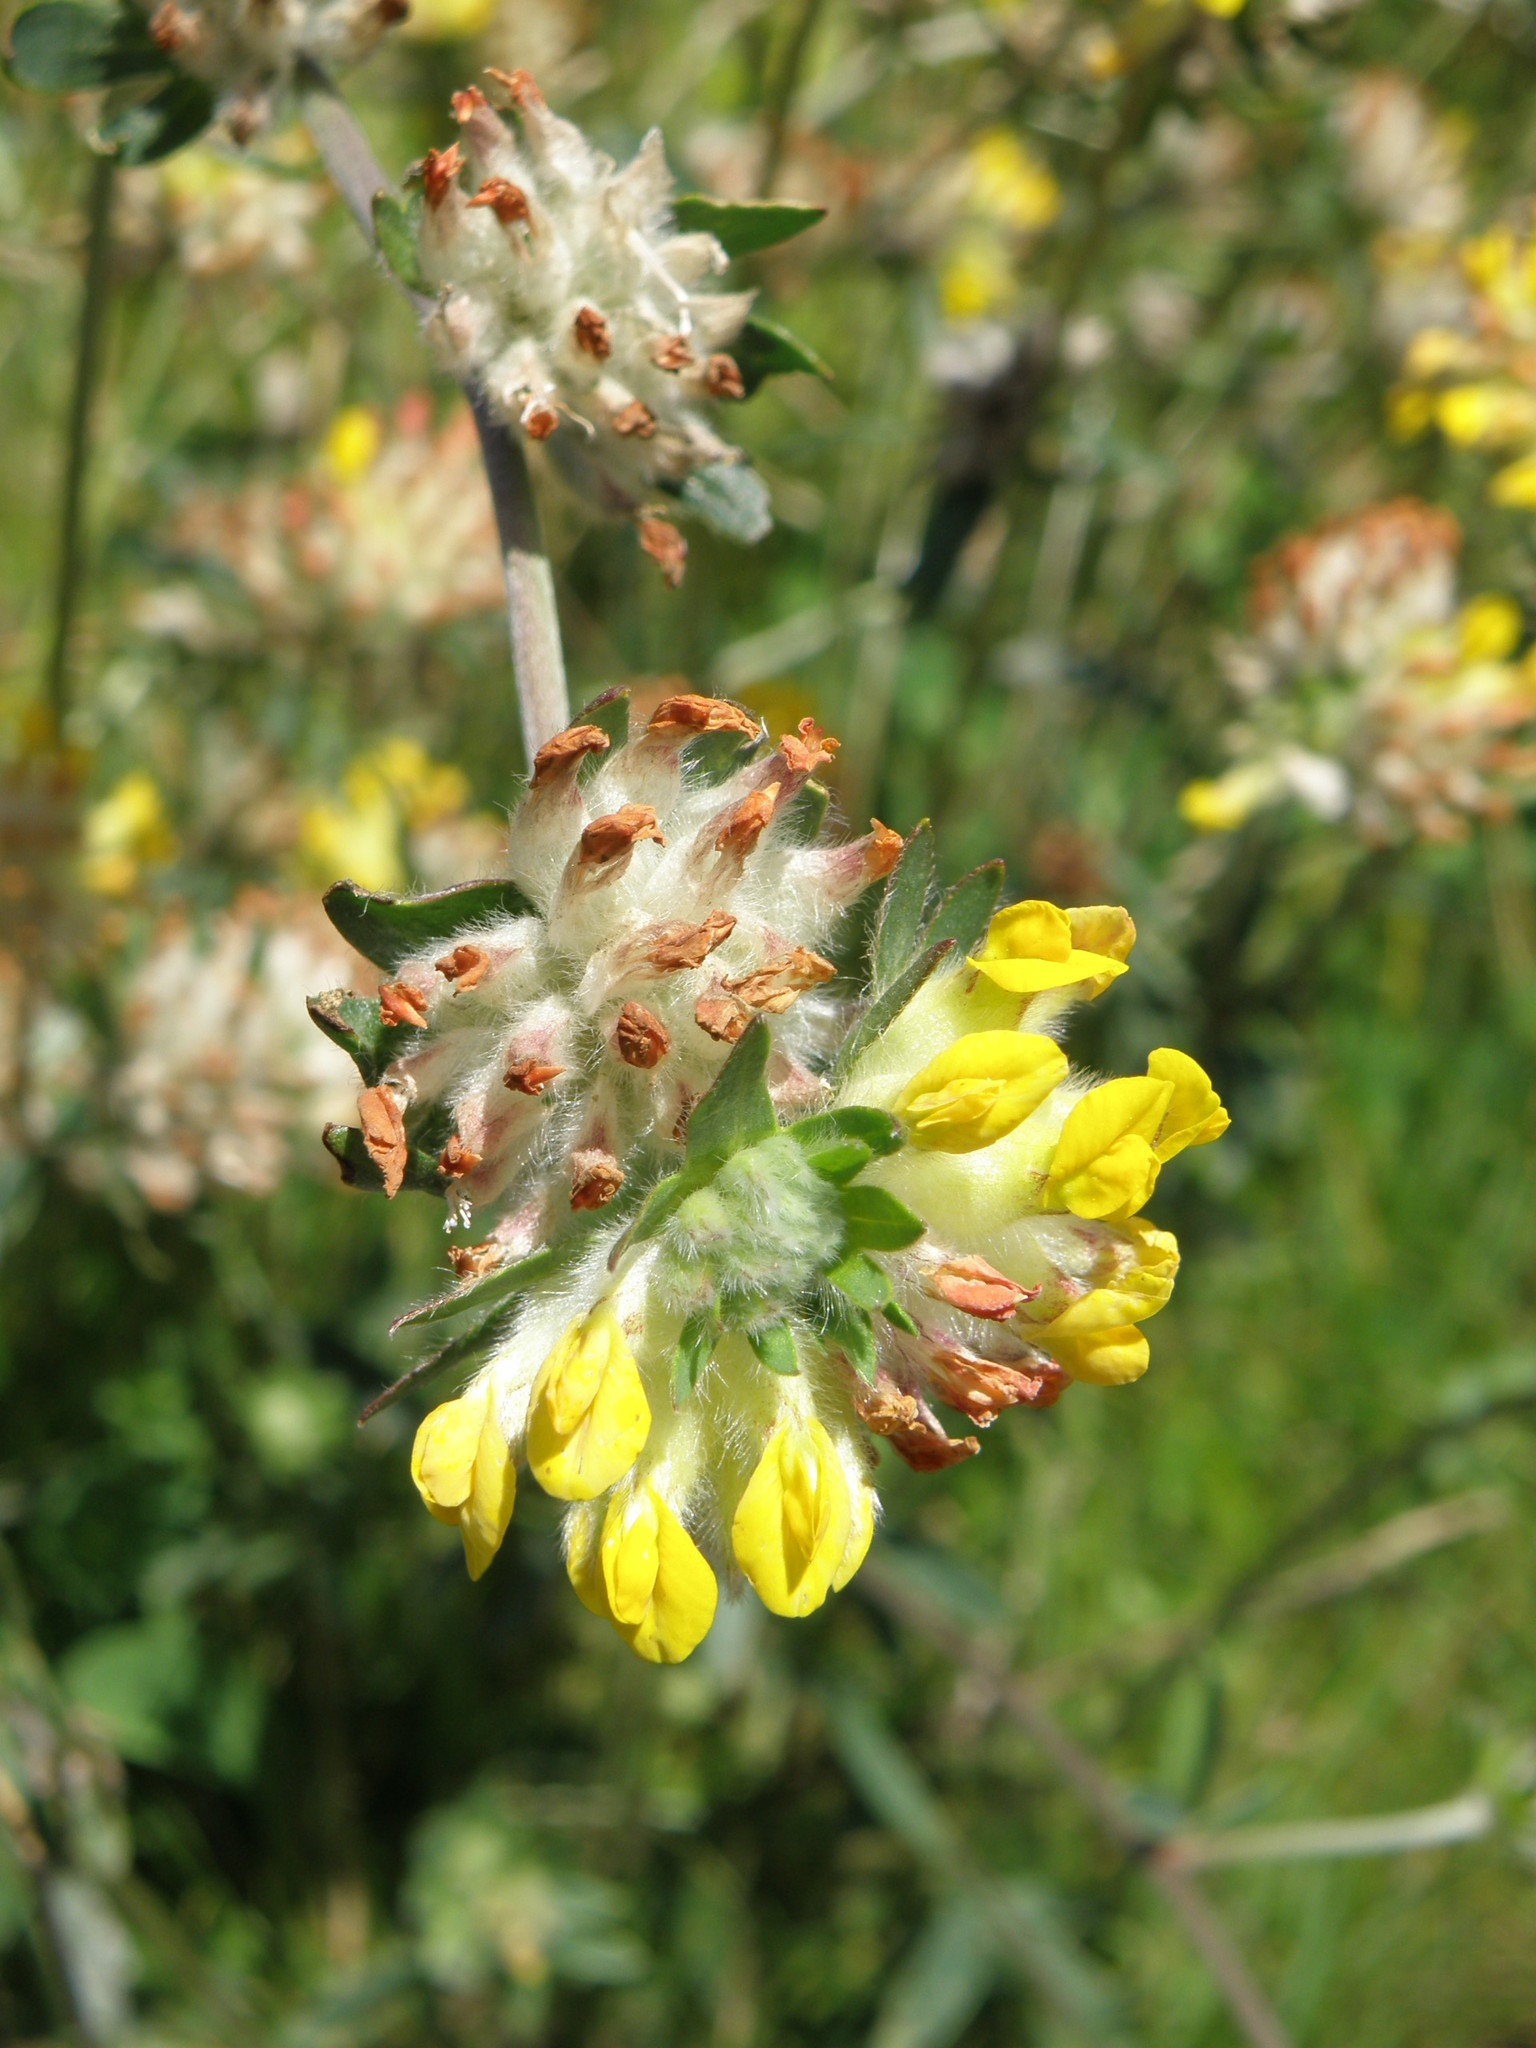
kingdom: Plantae
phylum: Tracheophyta
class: Magnoliopsida
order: Fabales
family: Fabaceae
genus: Anthyllis
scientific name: Anthyllis vulneraria
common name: Kidney vetch
